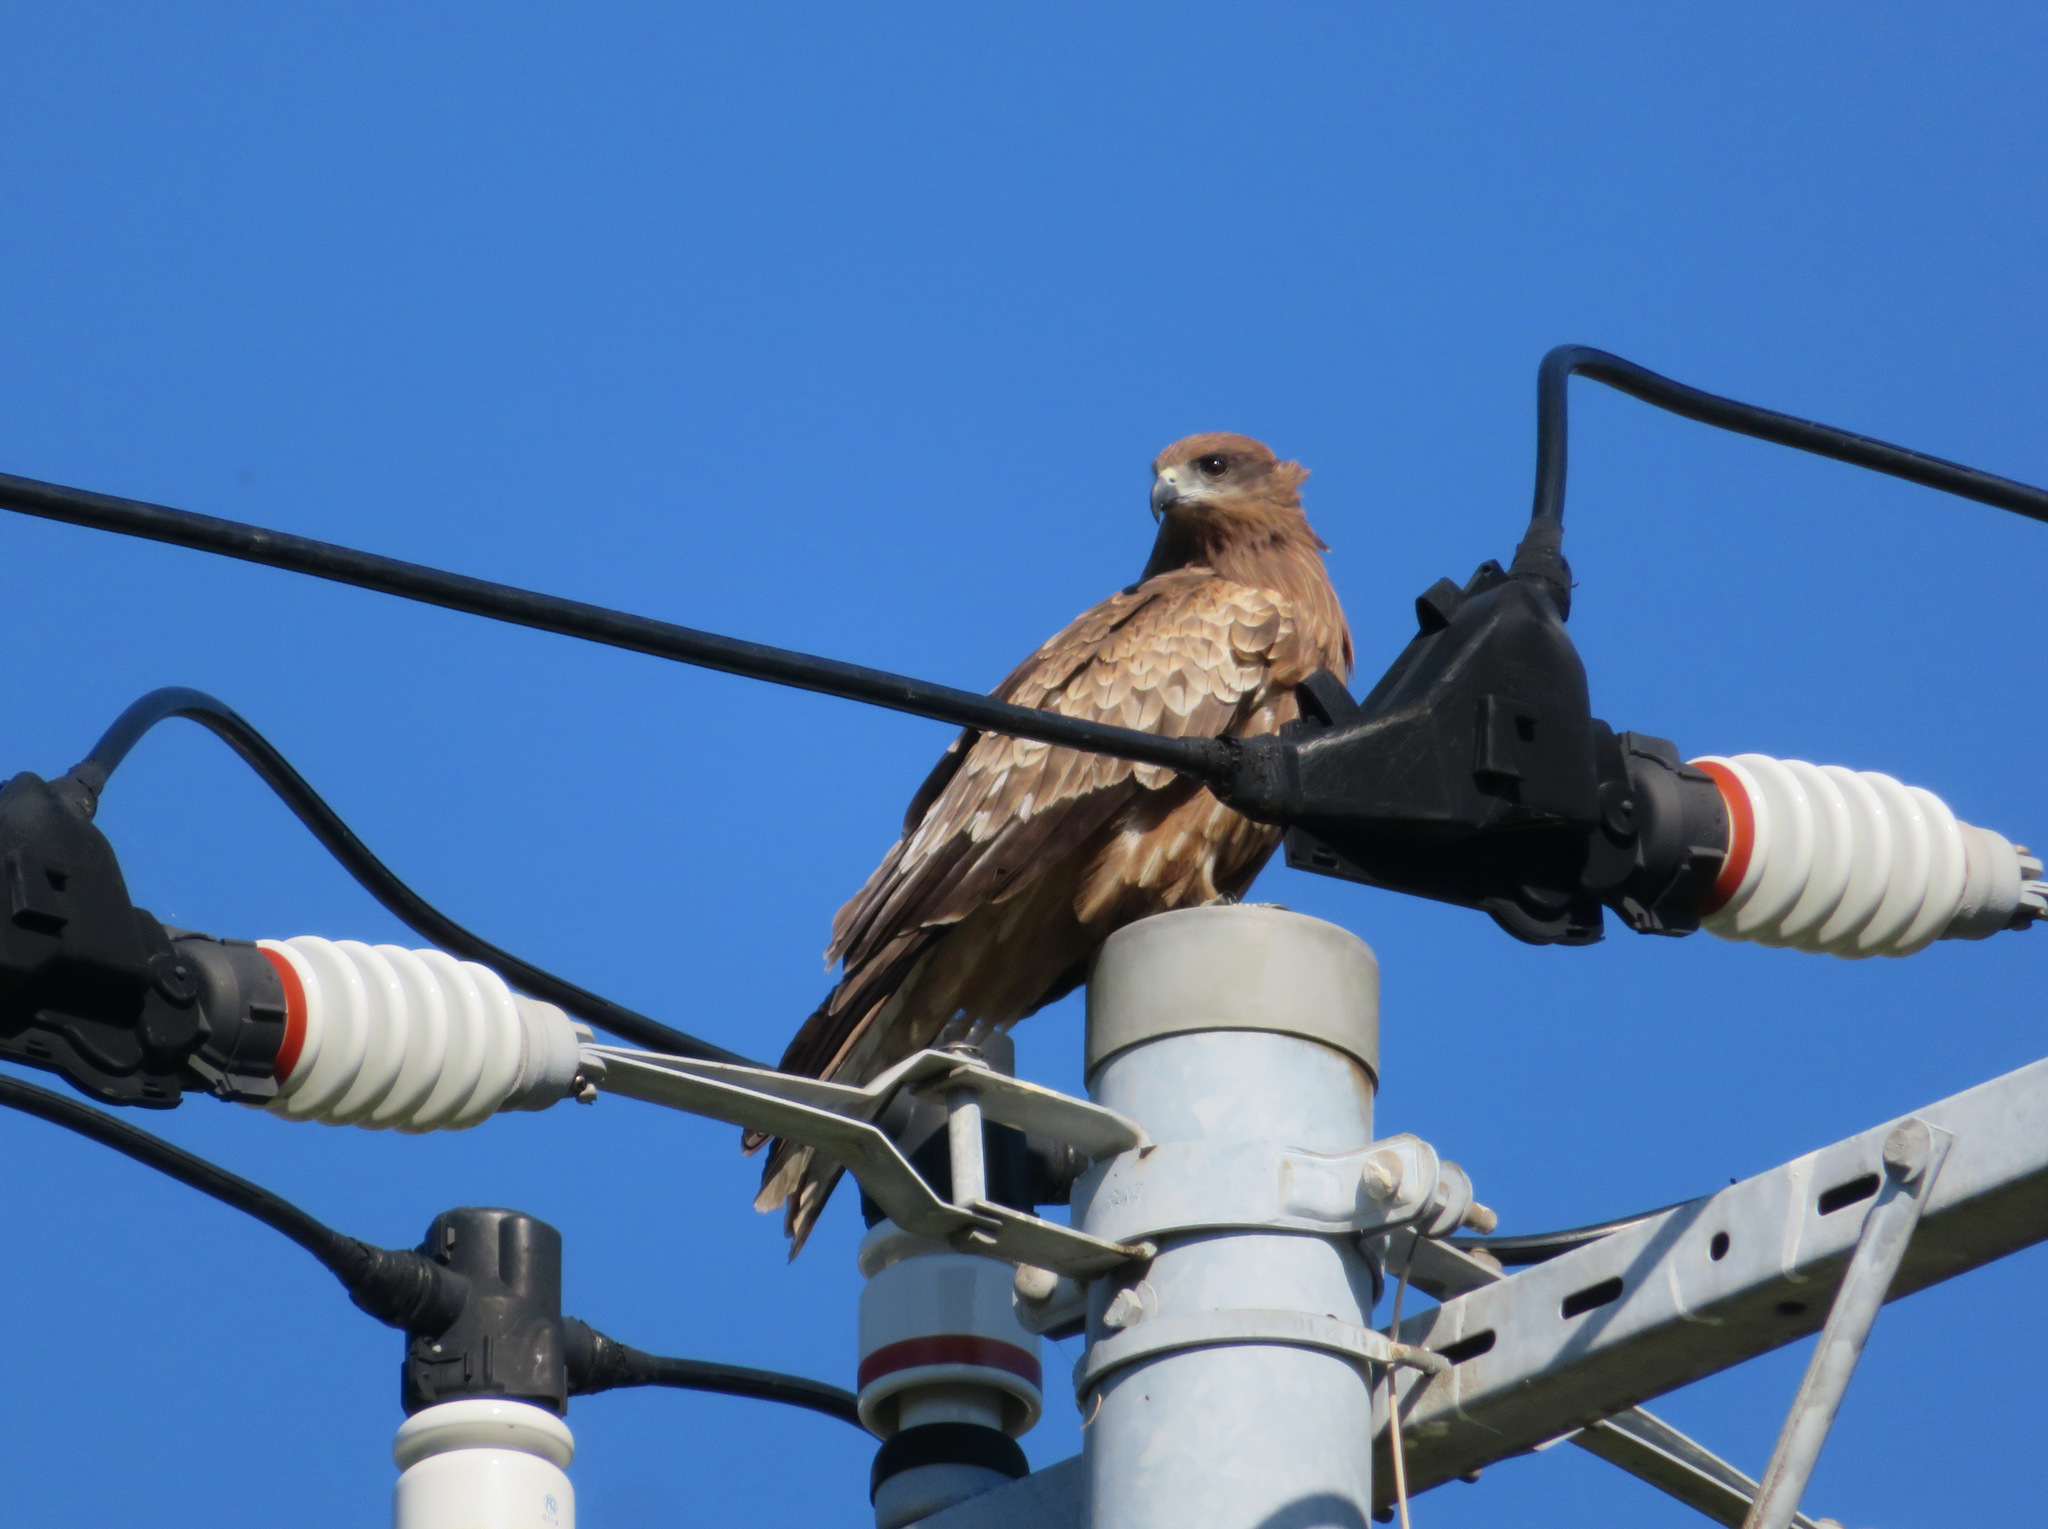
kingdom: Animalia
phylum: Chordata
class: Aves
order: Accipitriformes
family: Accipitridae
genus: Milvus
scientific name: Milvus migrans
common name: Black kite
